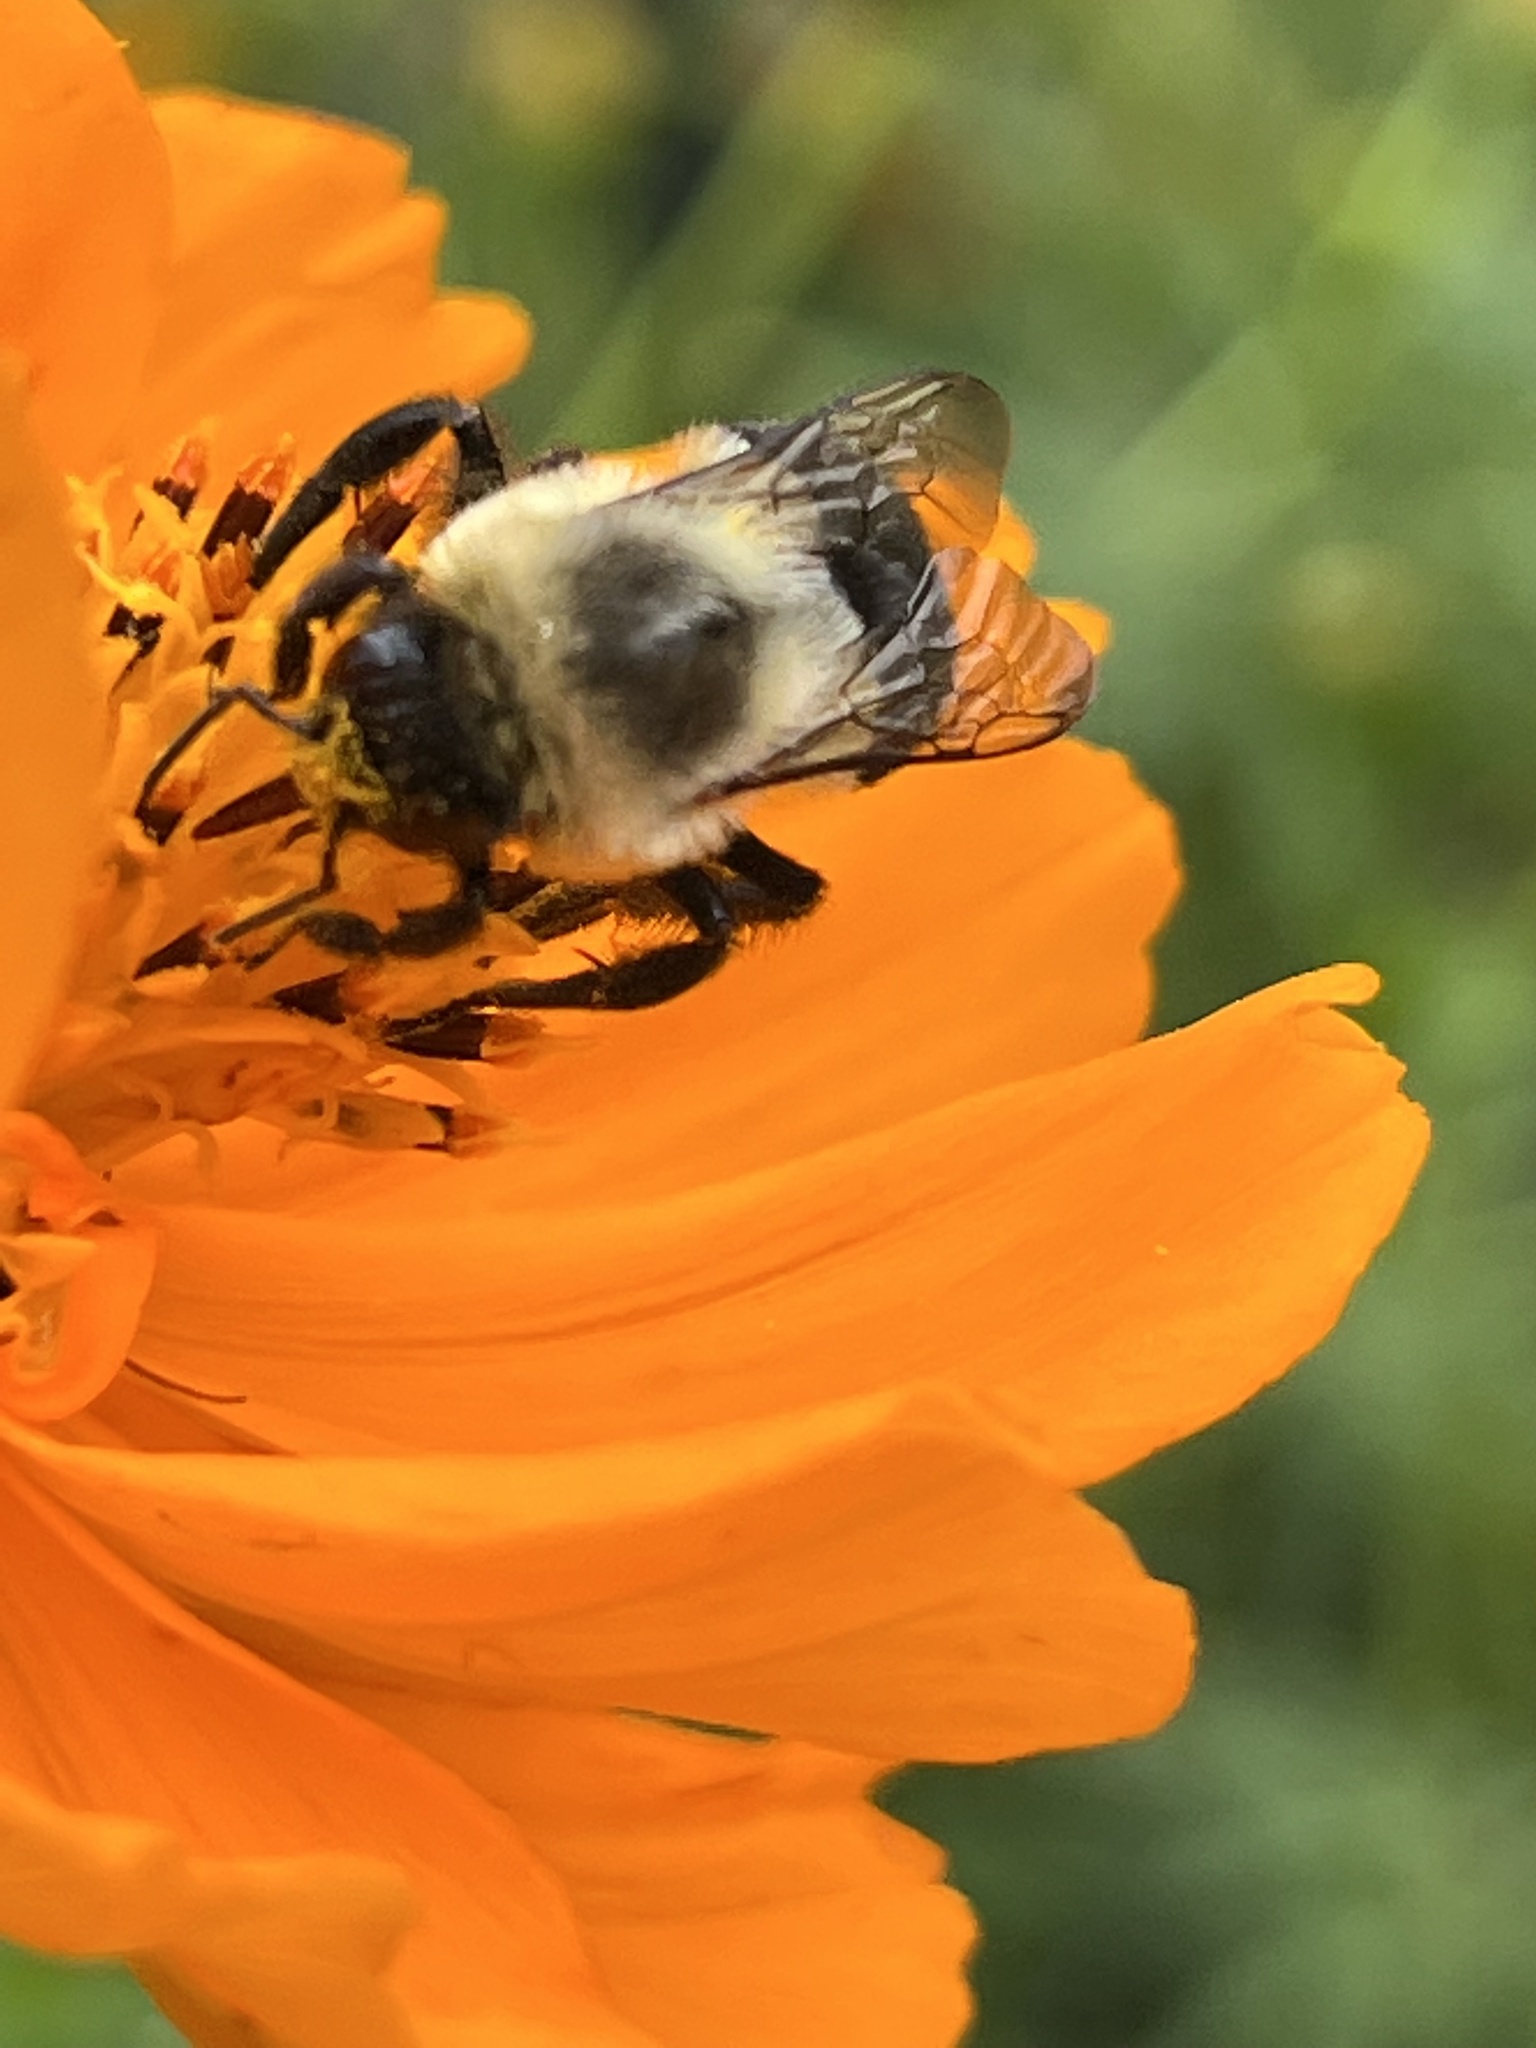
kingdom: Animalia
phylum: Arthropoda
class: Insecta
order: Hymenoptera
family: Apidae
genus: Bombus
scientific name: Bombus impatiens
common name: Common eastern bumble bee
